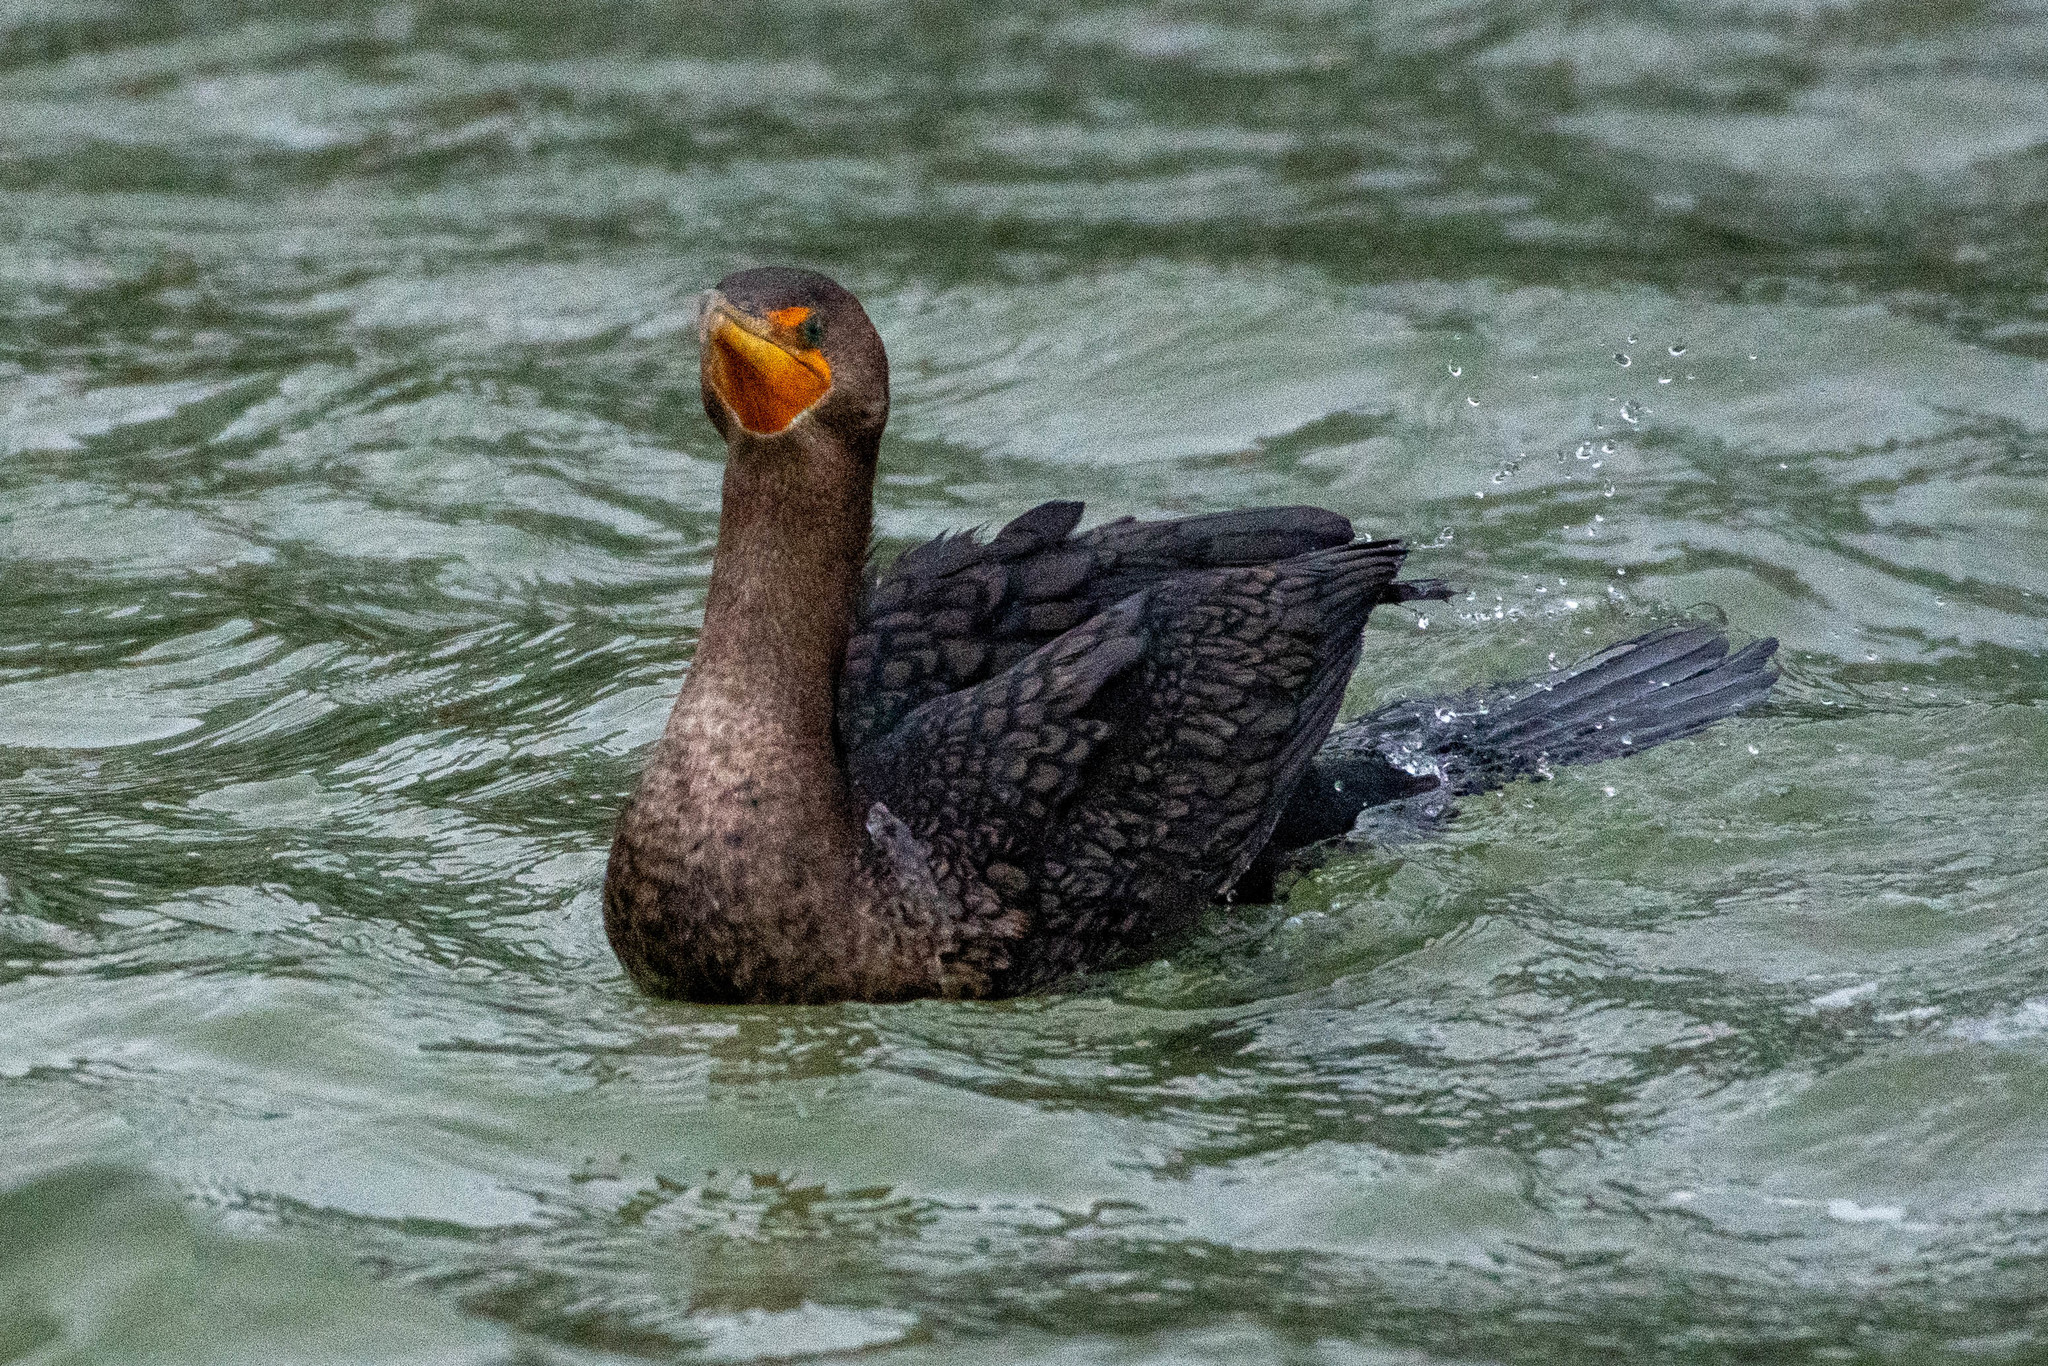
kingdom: Animalia
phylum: Chordata
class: Aves
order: Suliformes
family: Phalacrocoracidae
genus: Phalacrocorax
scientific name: Phalacrocorax auritus
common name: Double-crested cormorant
